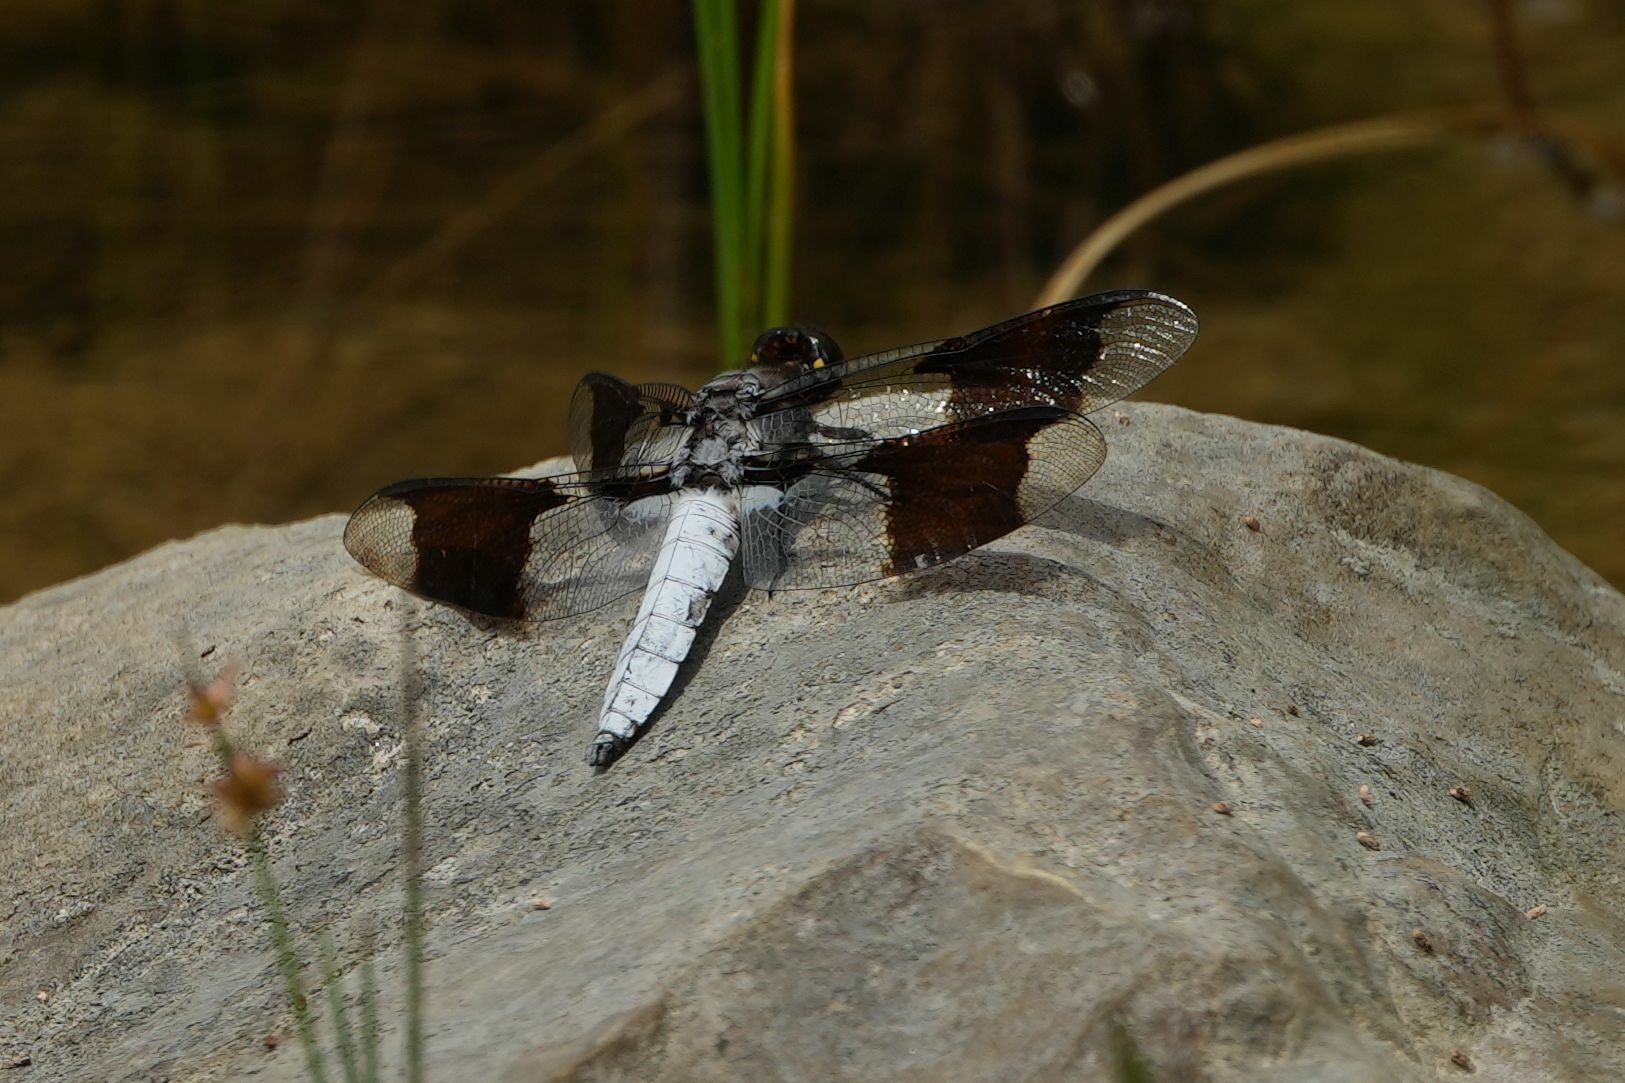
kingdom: Animalia
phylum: Arthropoda
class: Insecta
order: Odonata
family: Libellulidae
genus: Plathemis
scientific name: Plathemis lydia
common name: Common whitetail
